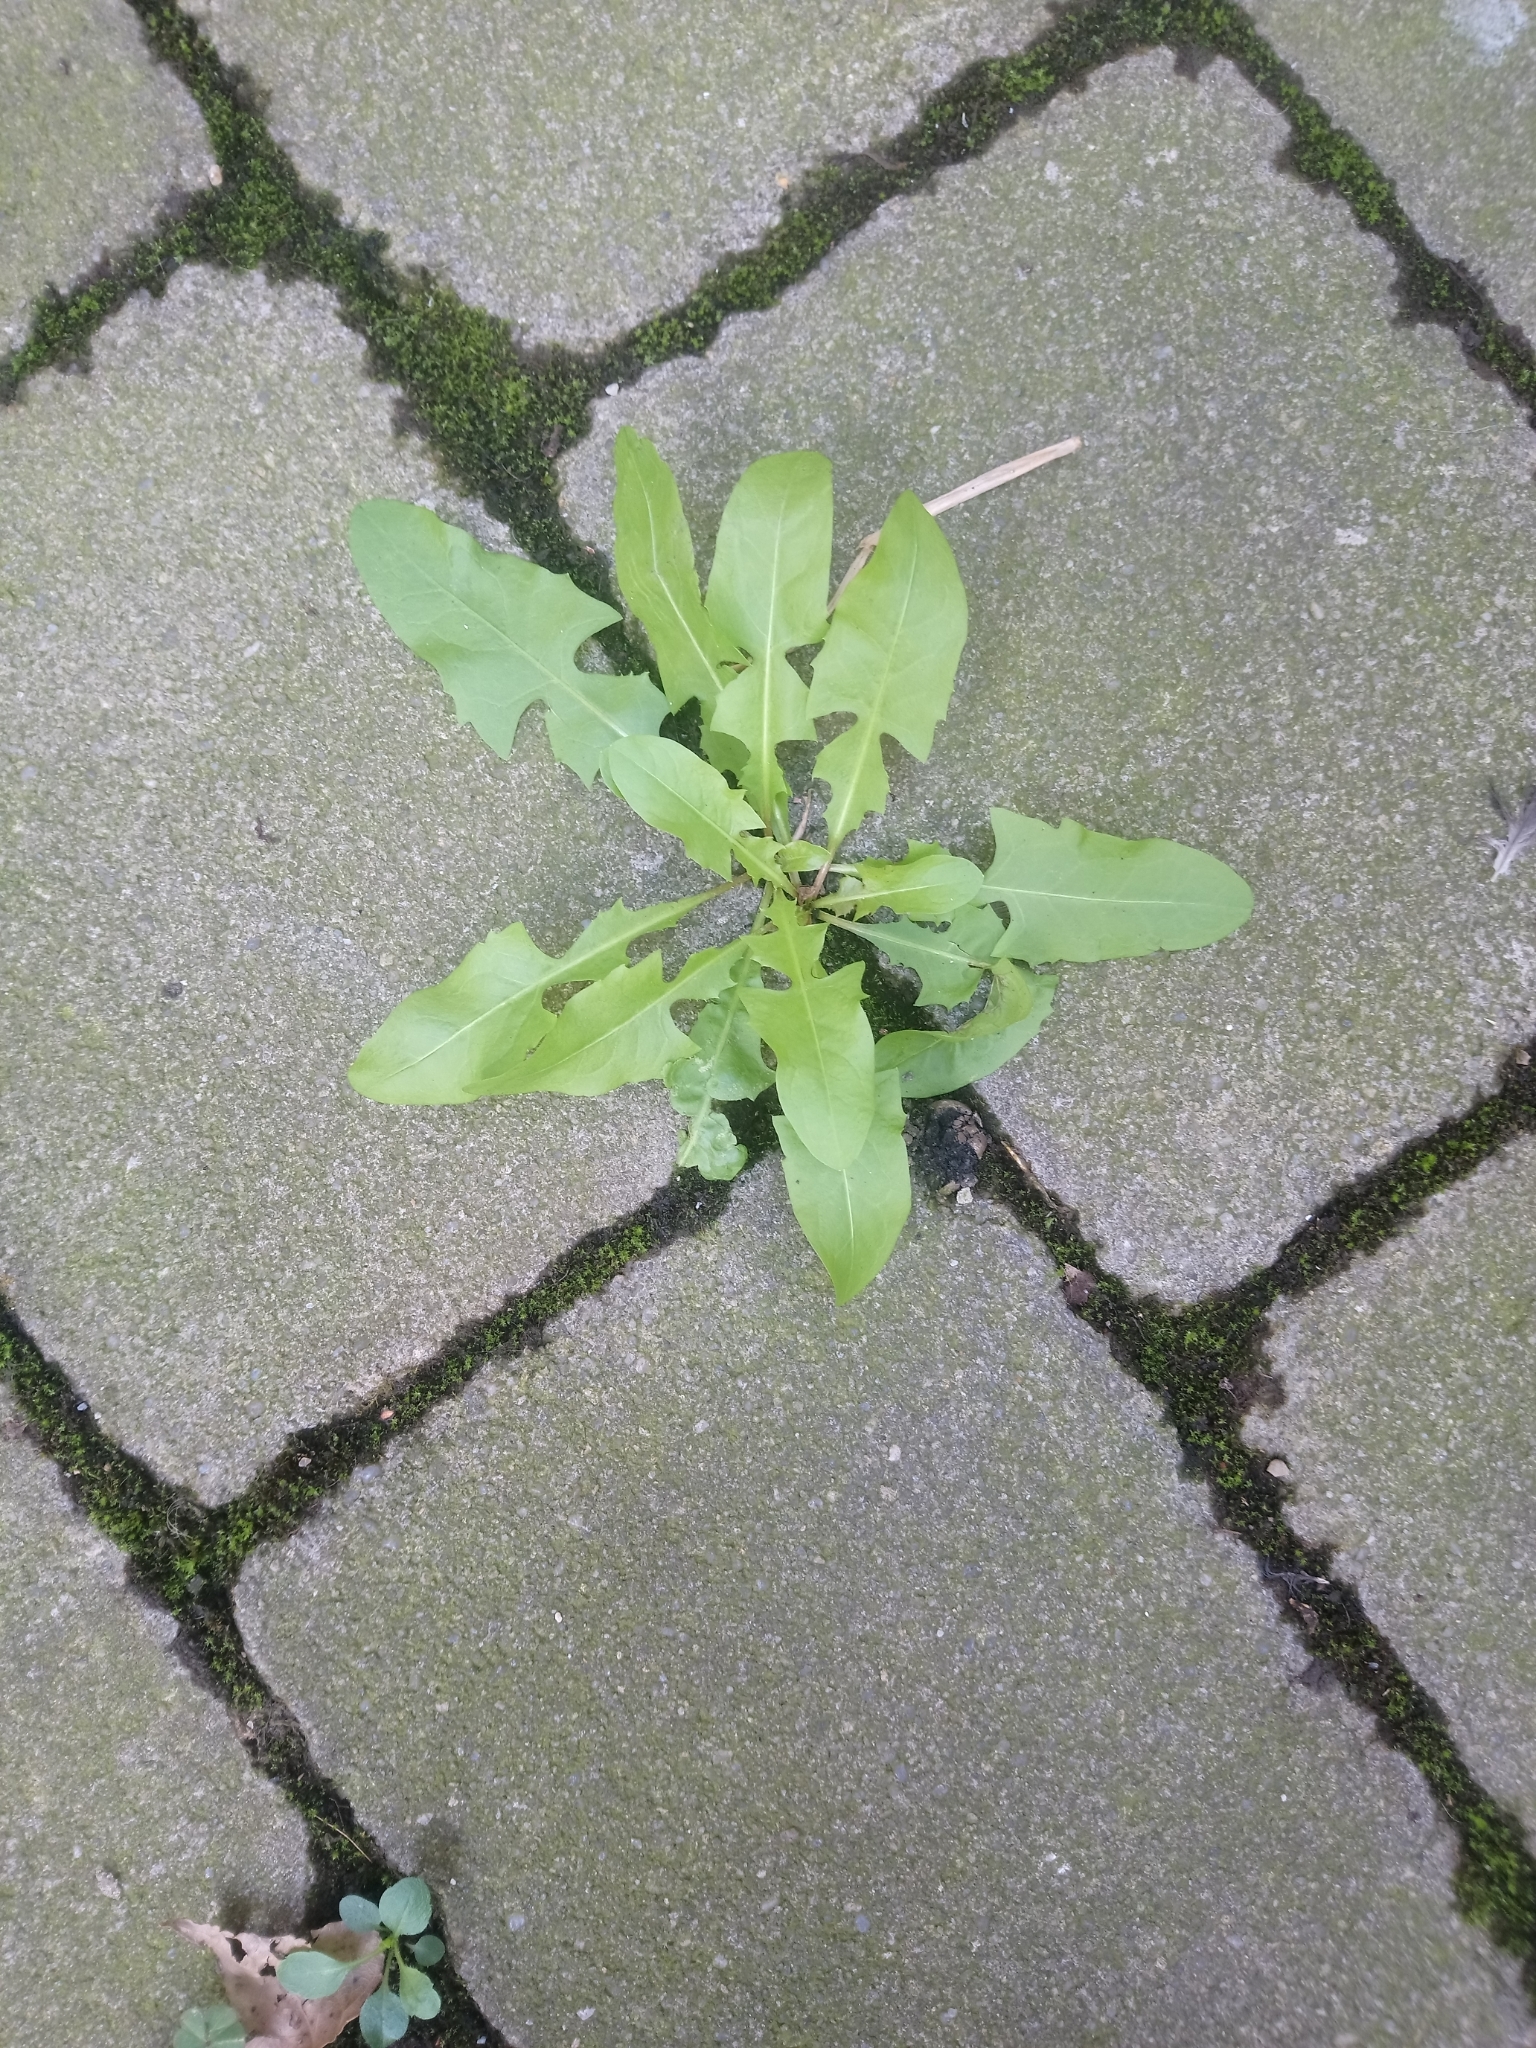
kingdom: Plantae
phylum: Tracheophyta
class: Magnoliopsida
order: Asterales
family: Asteraceae
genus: Taraxacum
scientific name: Taraxacum
